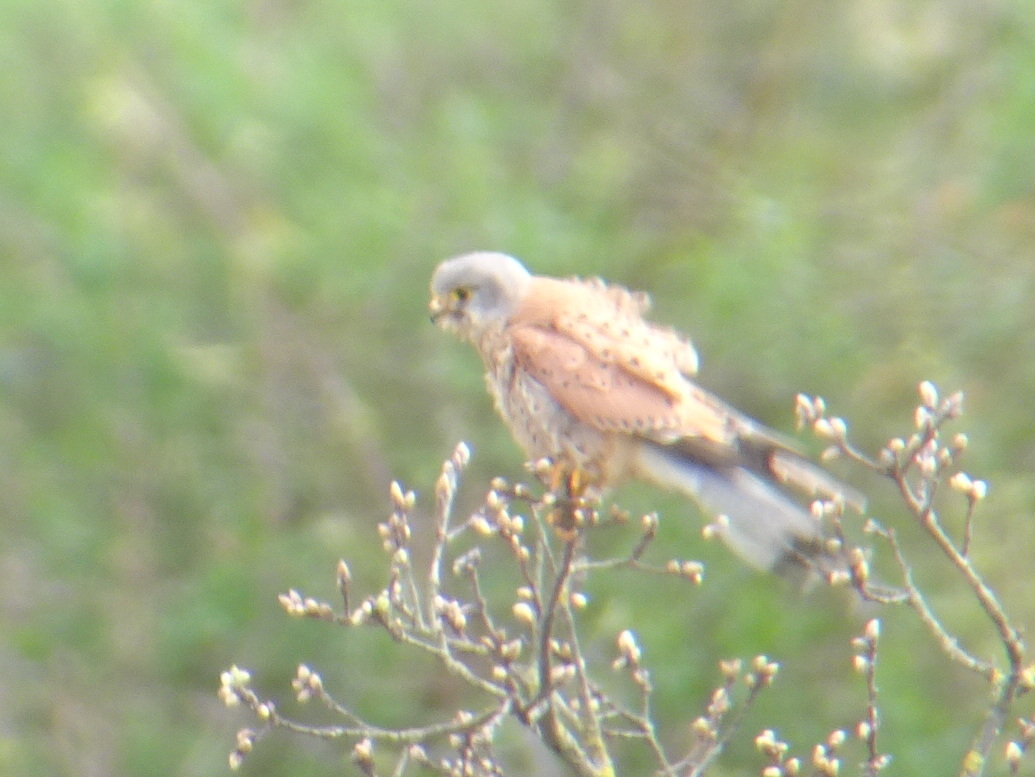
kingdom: Animalia
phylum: Chordata
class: Aves
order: Falconiformes
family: Falconidae
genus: Falco
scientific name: Falco tinnunculus
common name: Common kestrel
